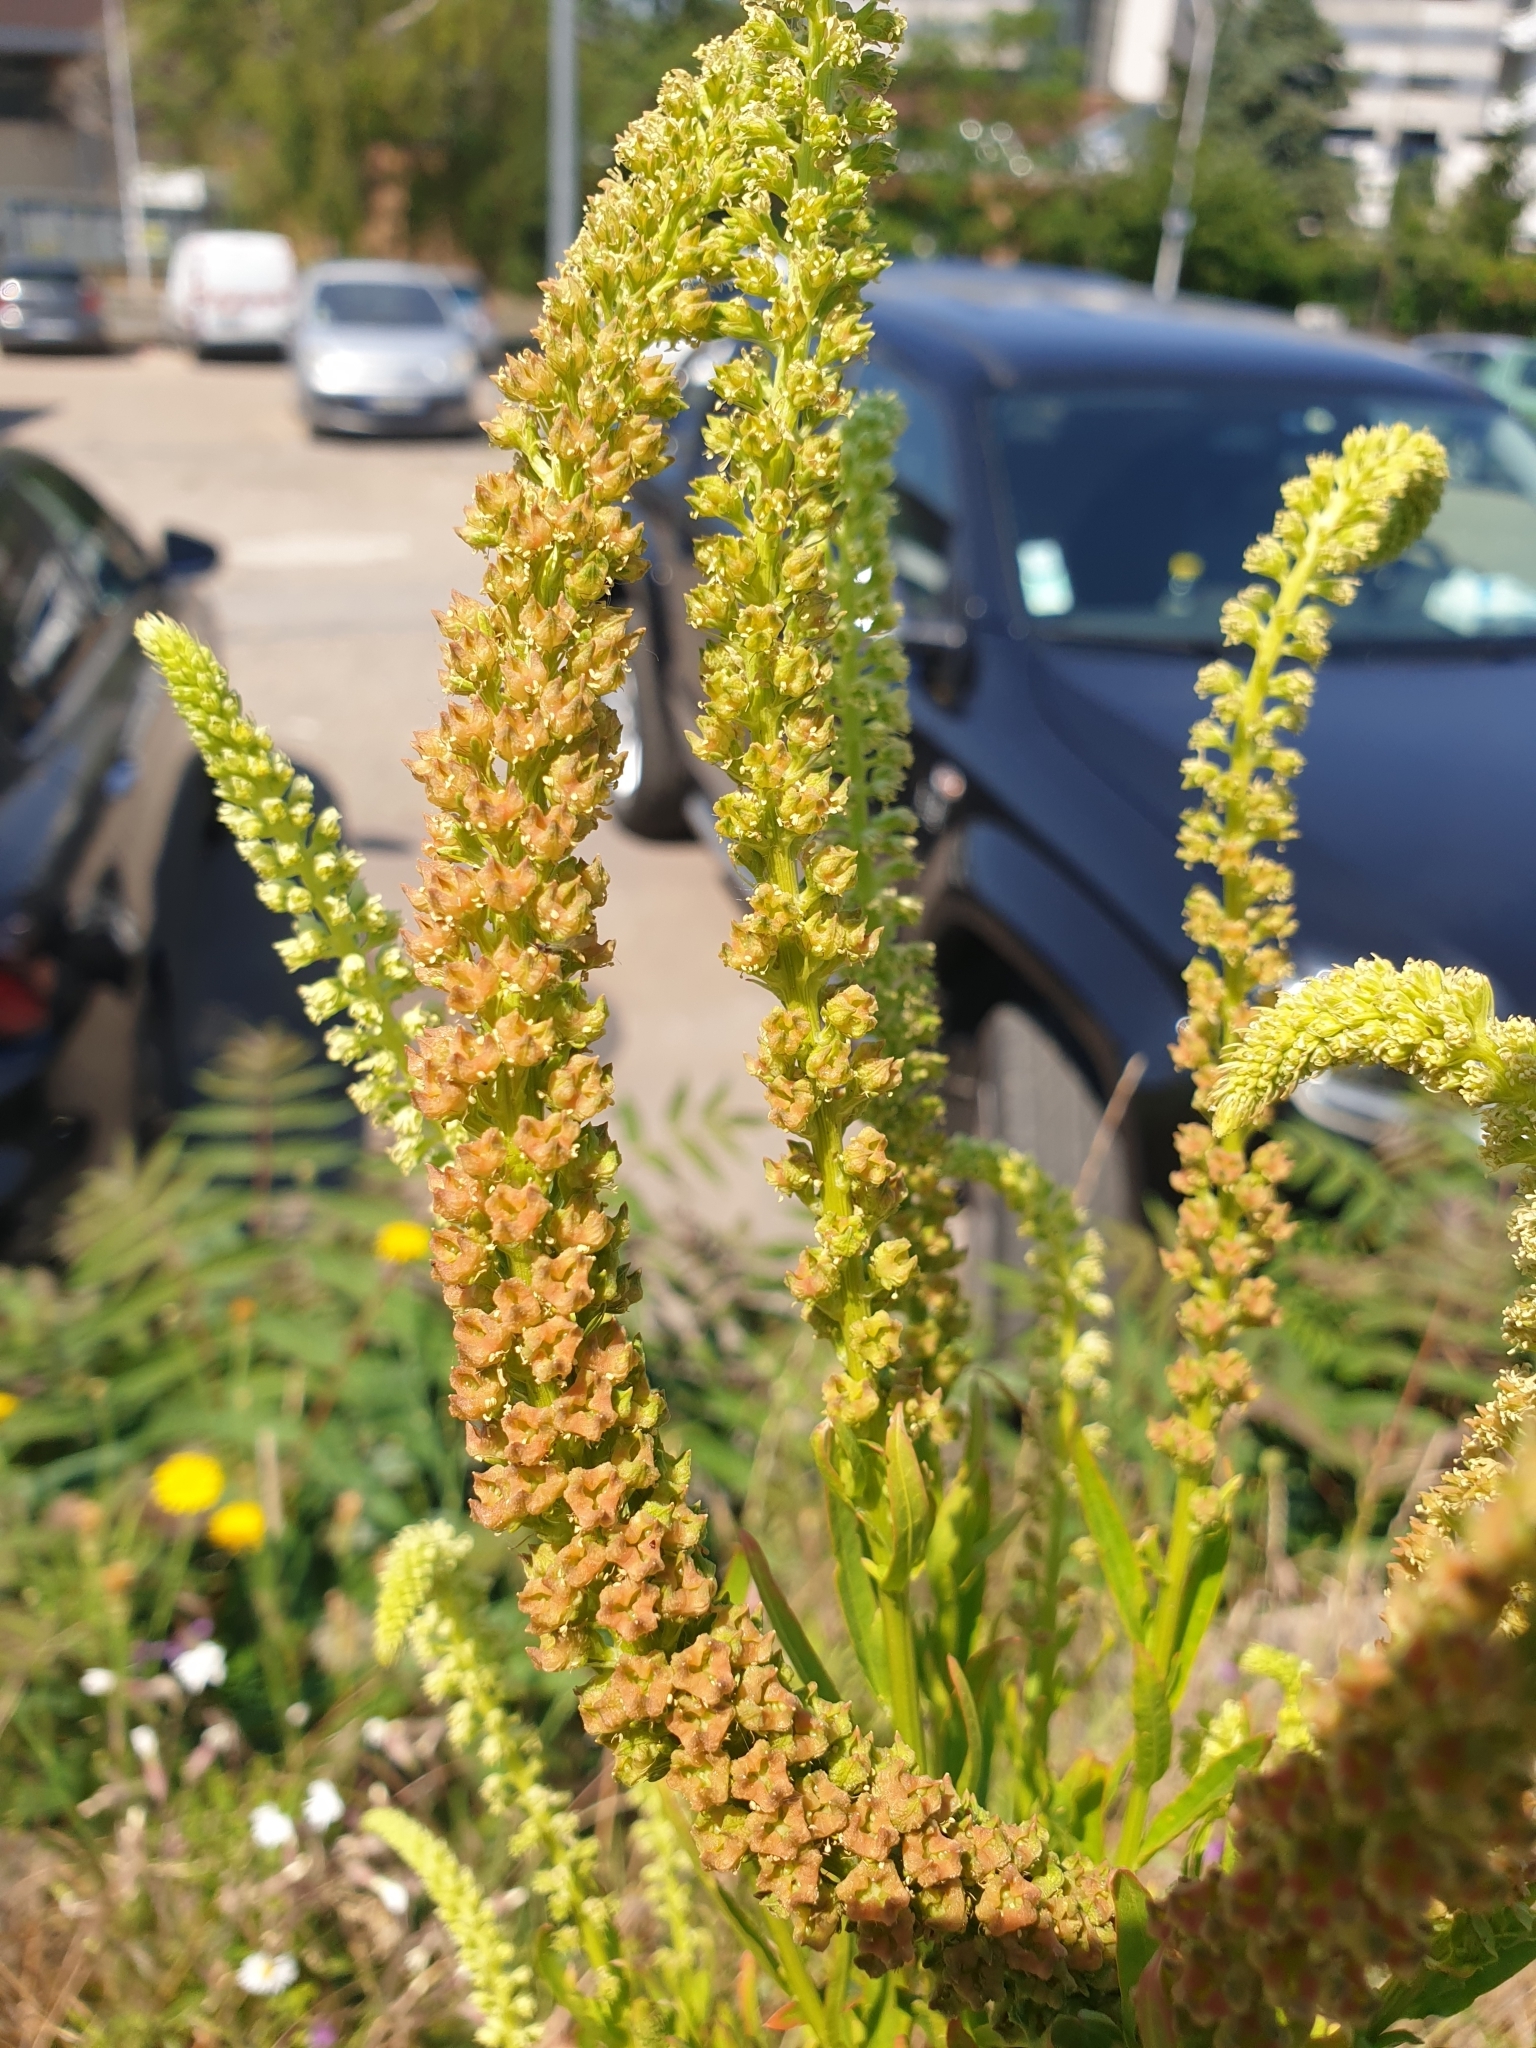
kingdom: Plantae
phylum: Tracheophyta
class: Magnoliopsida
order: Brassicales
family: Resedaceae
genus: Reseda
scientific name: Reseda luteola
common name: Weld
